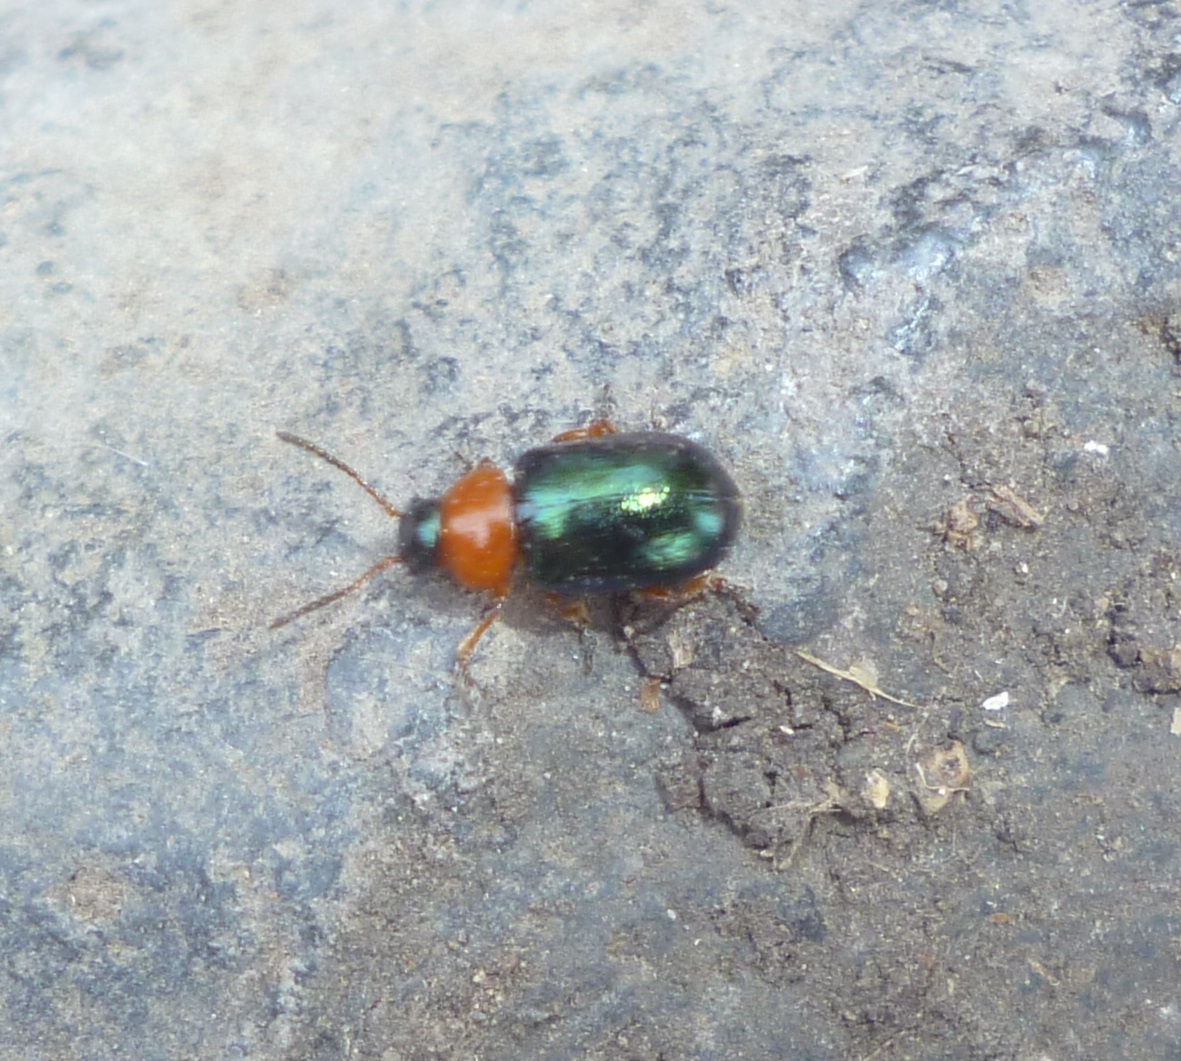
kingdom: Animalia
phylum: Arthropoda
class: Insecta
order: Coleoptera
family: Chrysomelidae
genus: Gastrophysa
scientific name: Gastrophysa polygoni
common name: Knotweed leaf beetle
